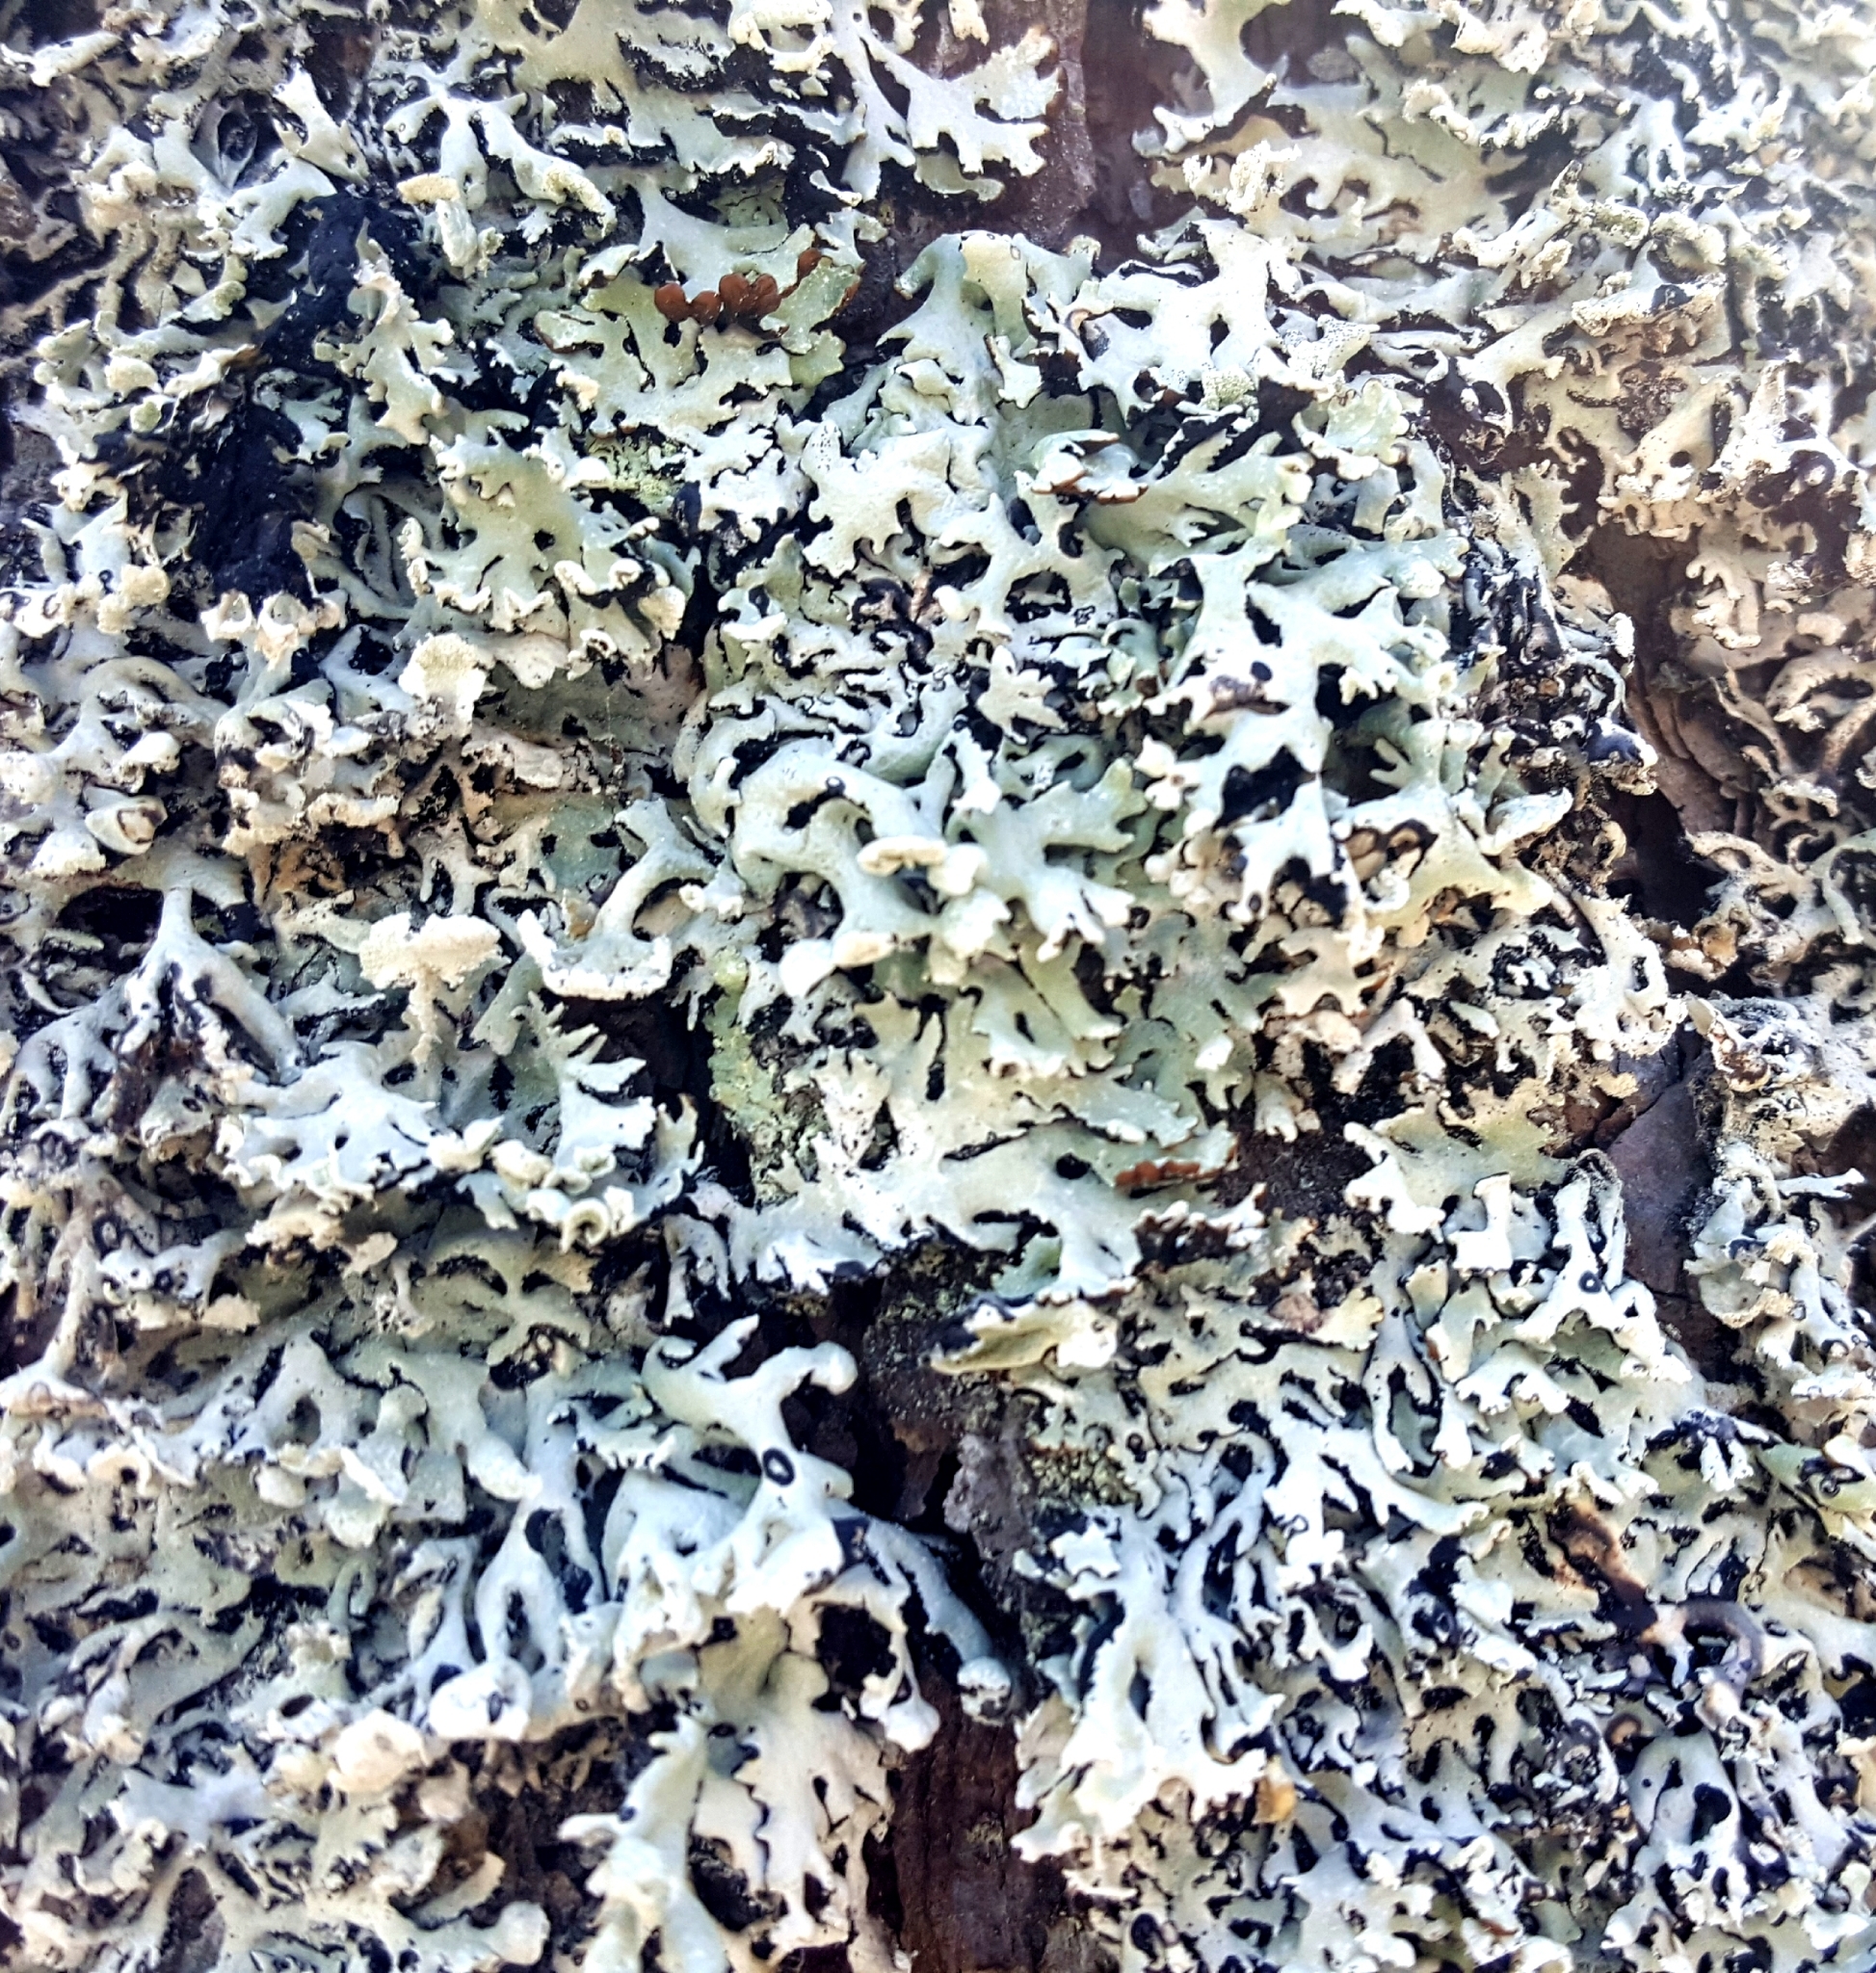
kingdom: Fungi
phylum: Ascomycota
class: Lecanoromycetes
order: Lecanorales
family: Parmeliaceae
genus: Hypogymnia
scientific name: Hypogymnia physodes
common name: Dark crottle
